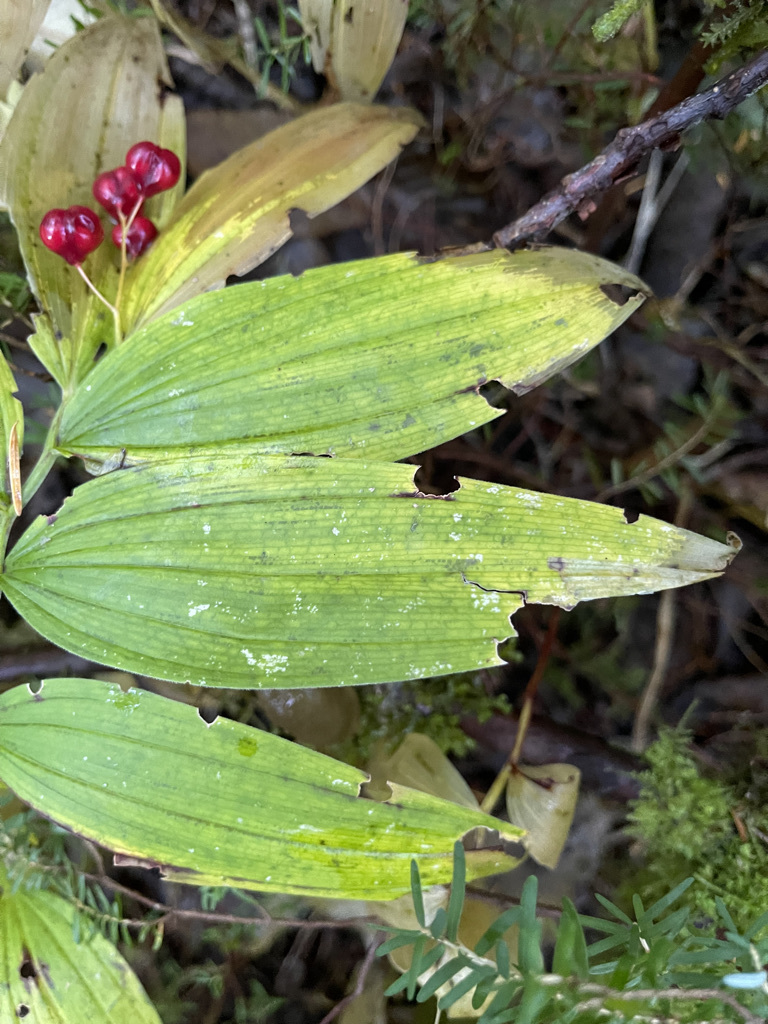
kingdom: Plantae
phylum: Tracheophyta
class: Liliopsida
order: Asparagales
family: Asparagaceae
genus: Maianthemum
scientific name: Maianthemum stellatum
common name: Little false solomon's seal
